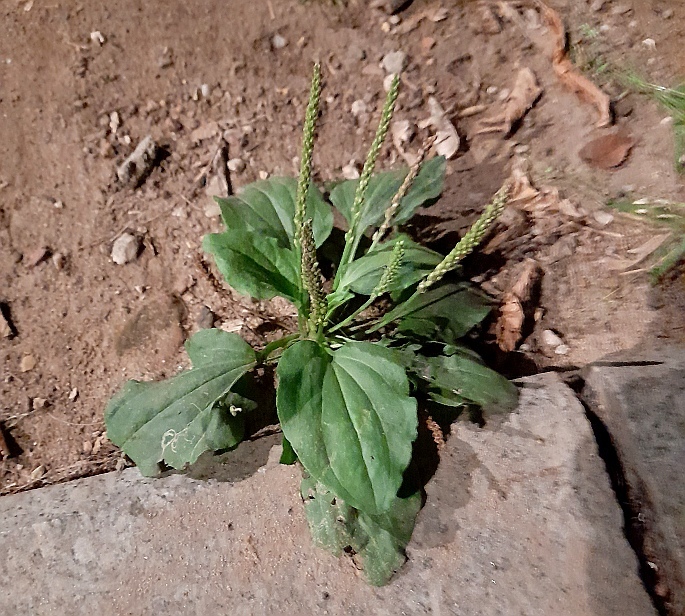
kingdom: Plantae
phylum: Tracheophyta
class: Magnoliopsida
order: Lamiales
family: Plantaginaceae
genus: Plantago
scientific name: Plantago major
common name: Common plantain
